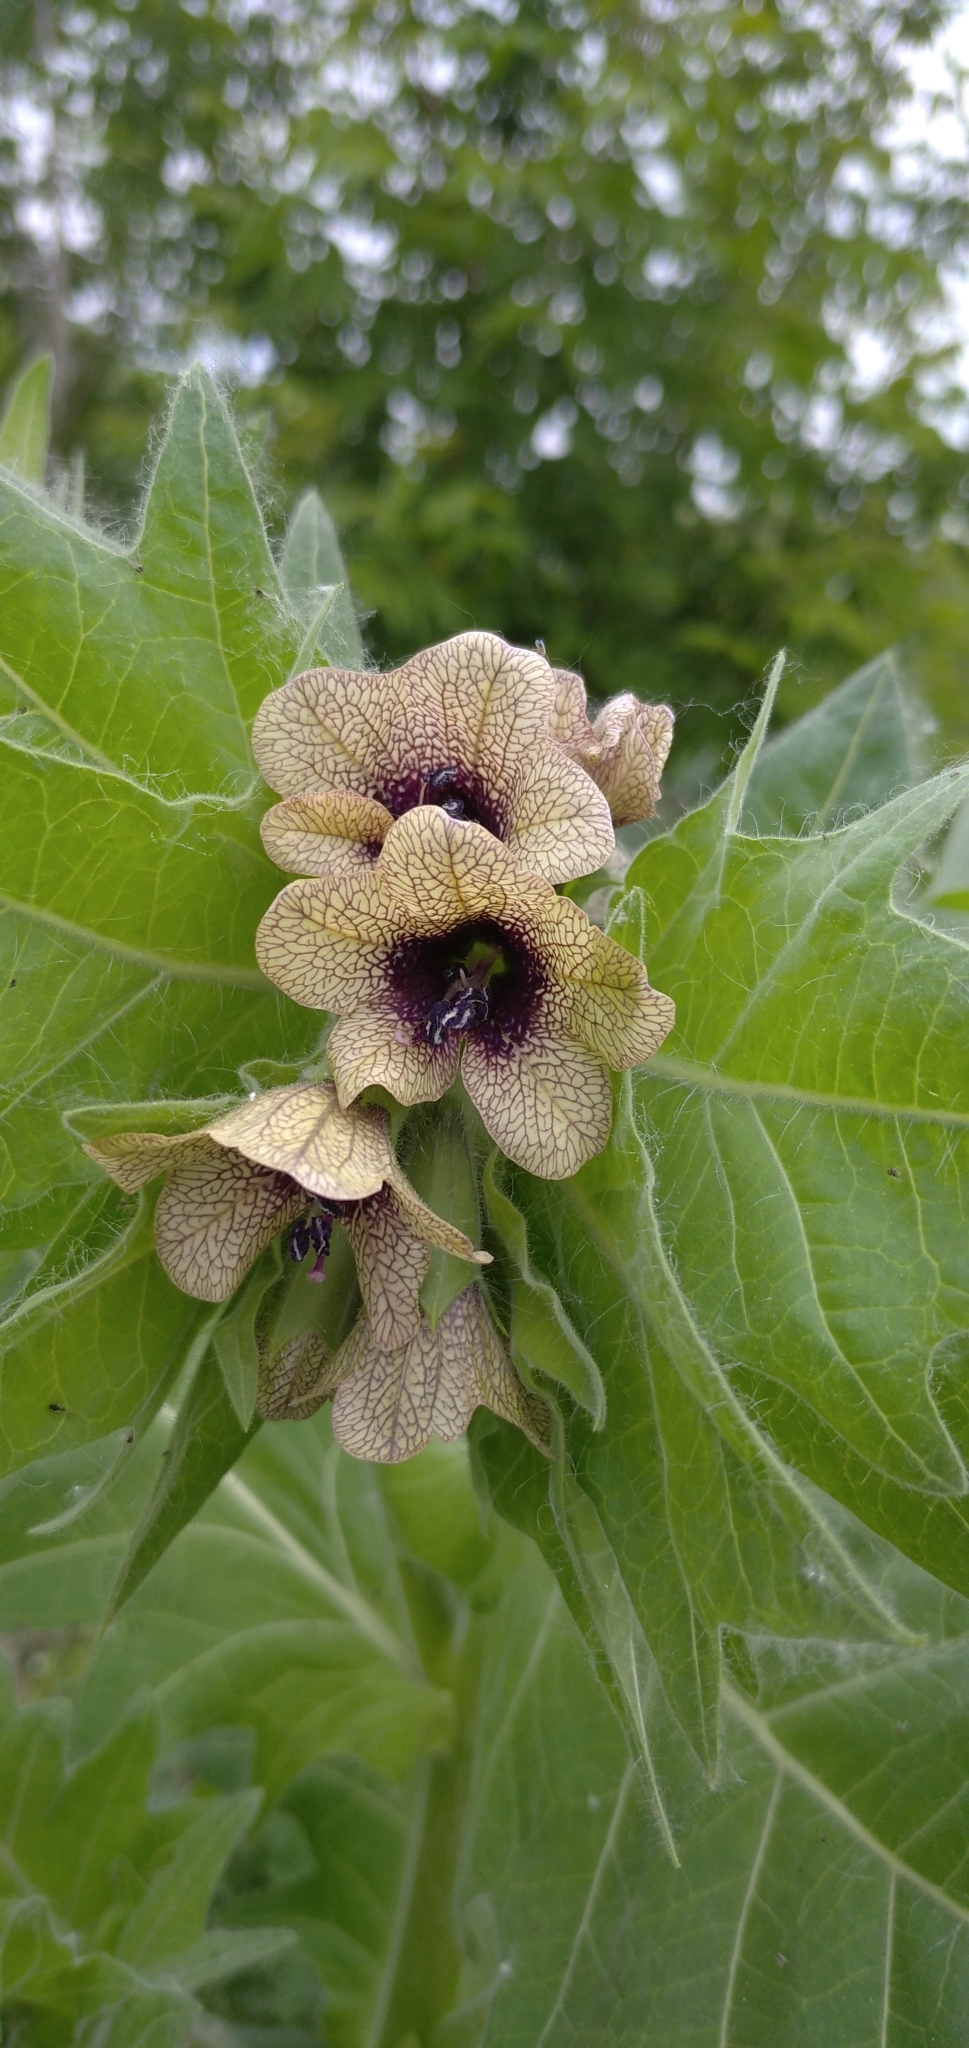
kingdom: Plantae
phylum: Tracheophyta
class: Magnoliopsida
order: Solanales
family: Solanaceae
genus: Hyoscyamus
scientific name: Hyoscyamus niger
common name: Henbane
